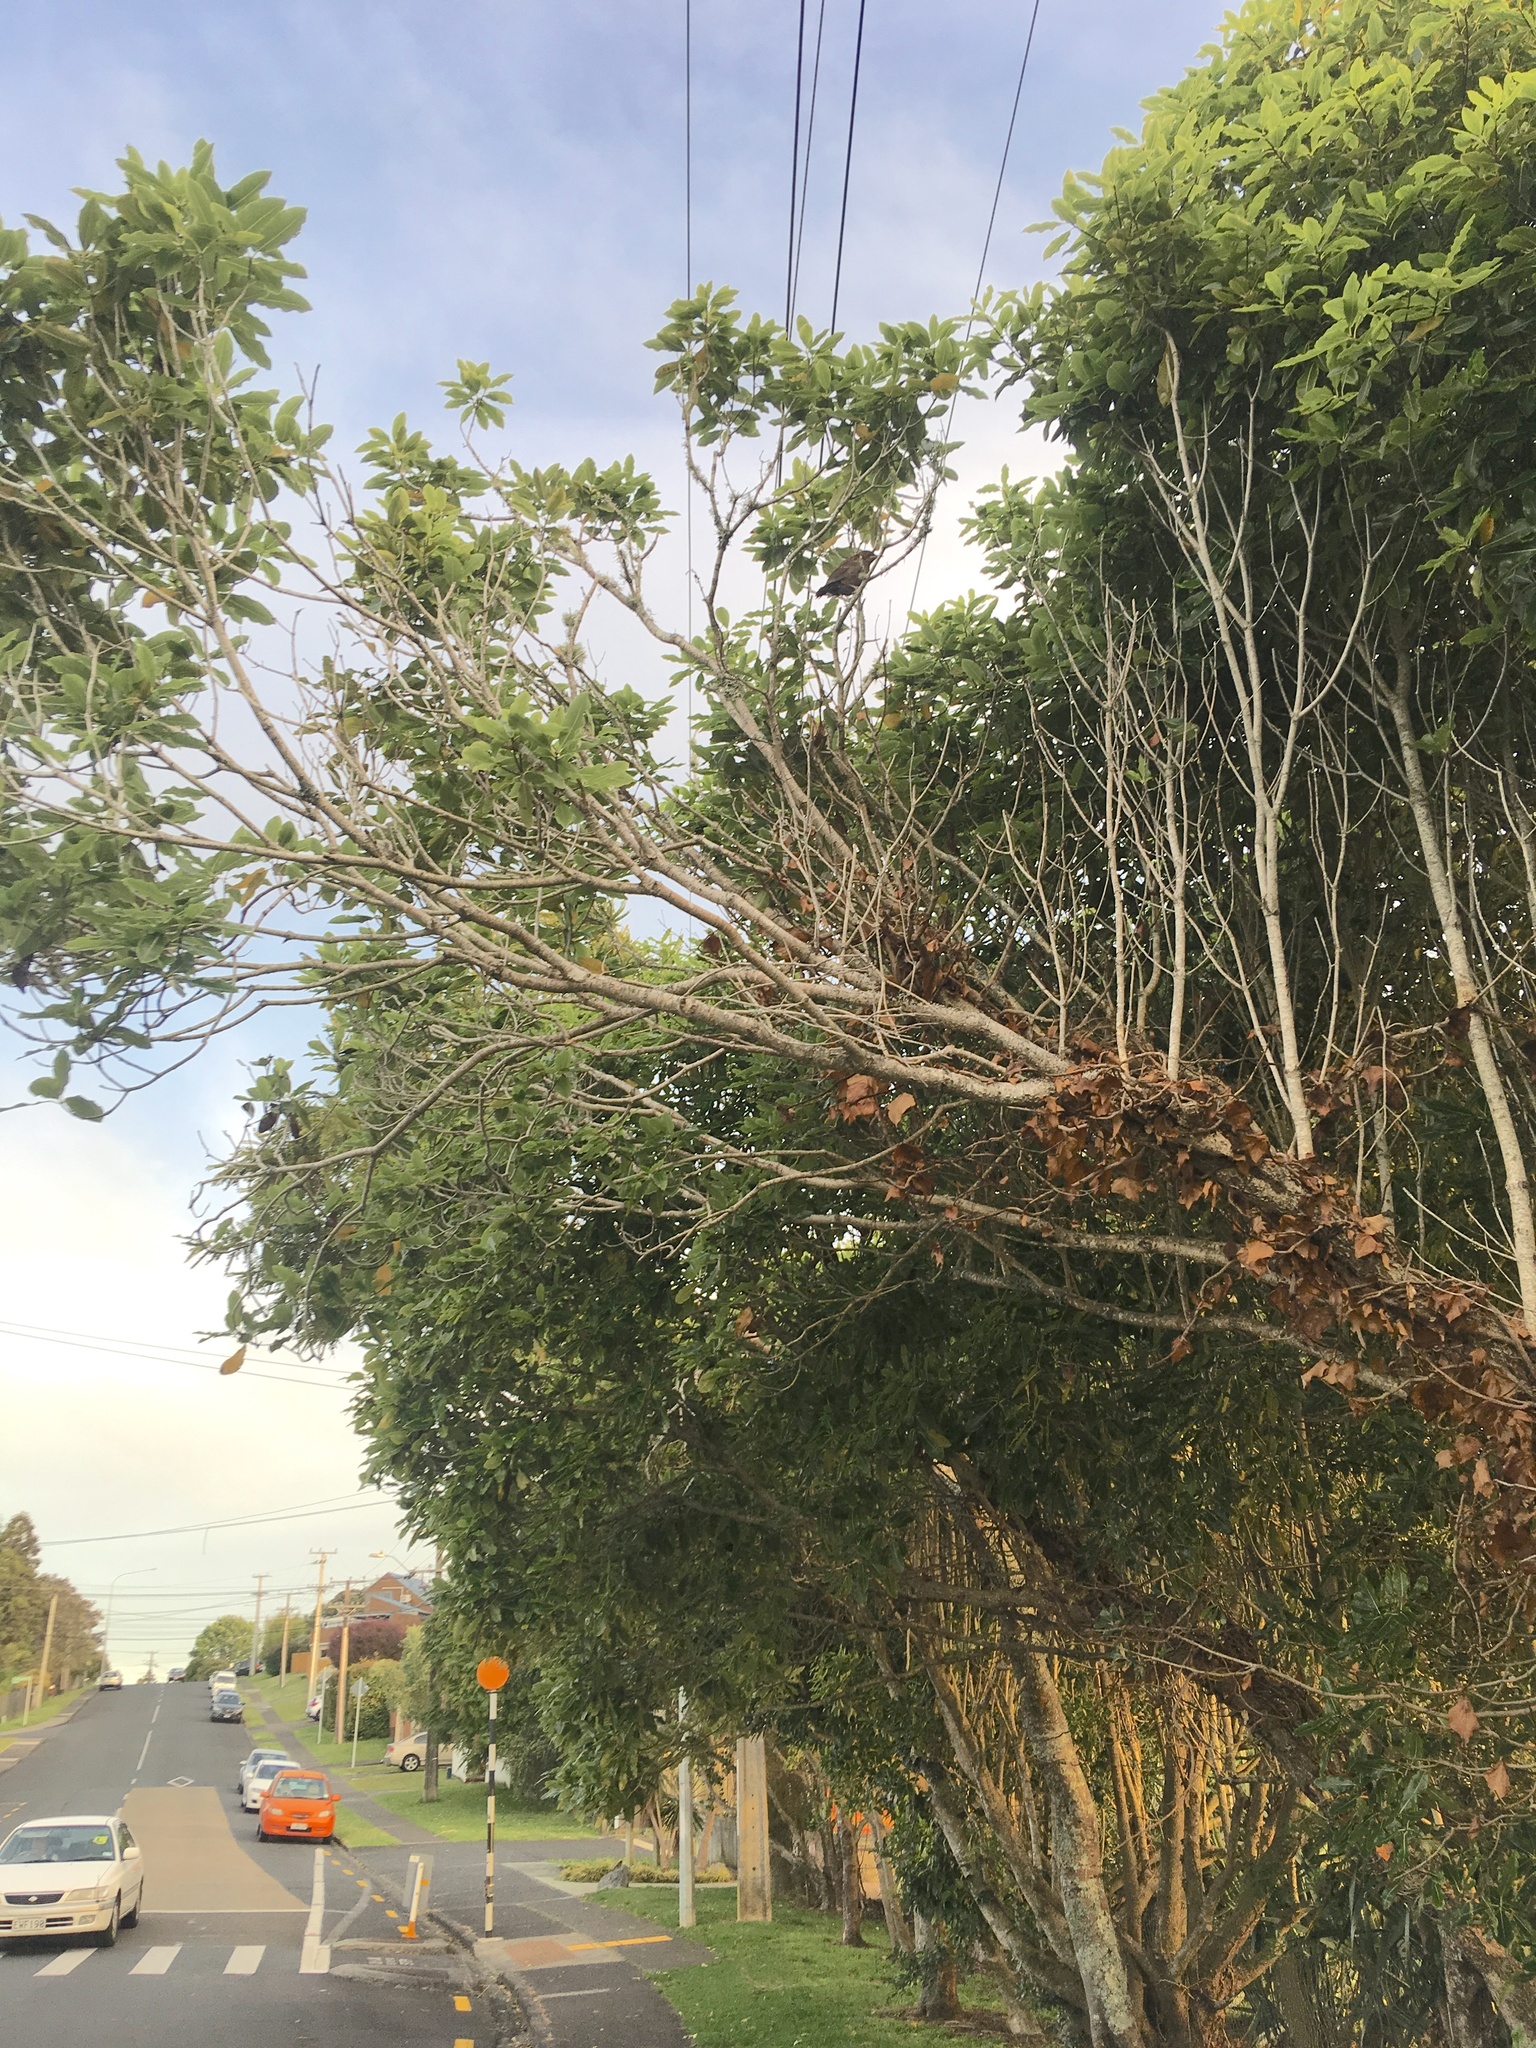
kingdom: Plantae
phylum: Tracheophyta
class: Magnoliopsida
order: Apiales
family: Pittosporaceae
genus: Pittosporum
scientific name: Pittosporum eugenioides
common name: Lemonwood
